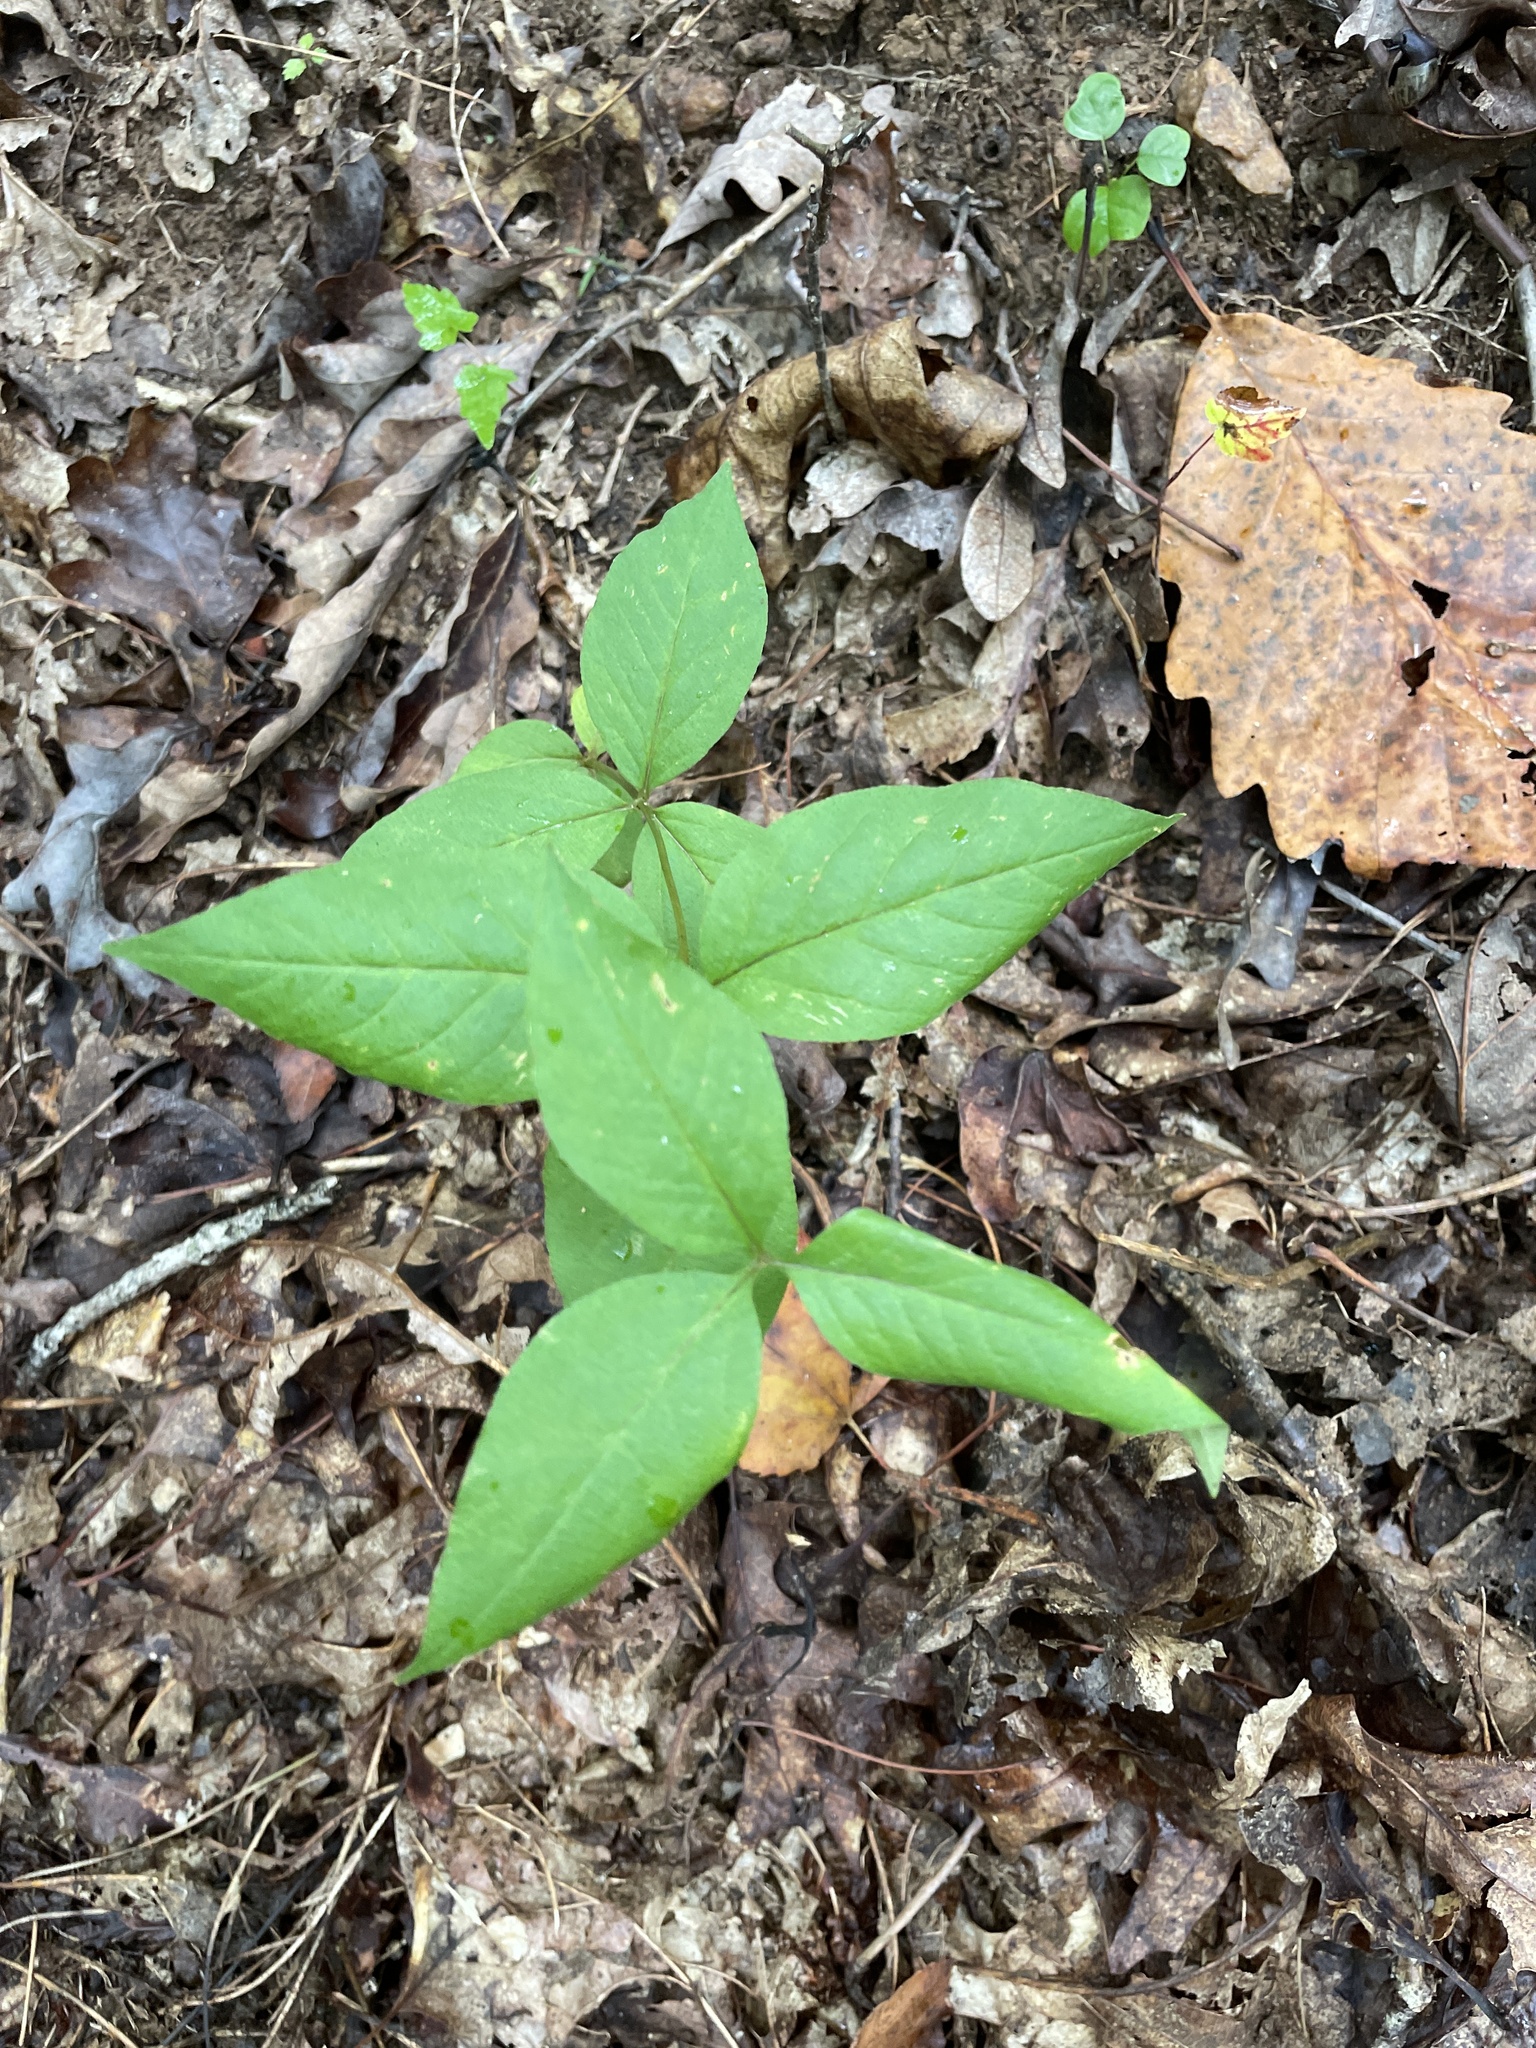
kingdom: Plantae
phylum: Tracheophyta
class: Magnoliopsida
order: Ericales
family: Primulaceae
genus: Lysimachia
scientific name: Lysimachia quadrifolia
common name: Whorled loosestrife
